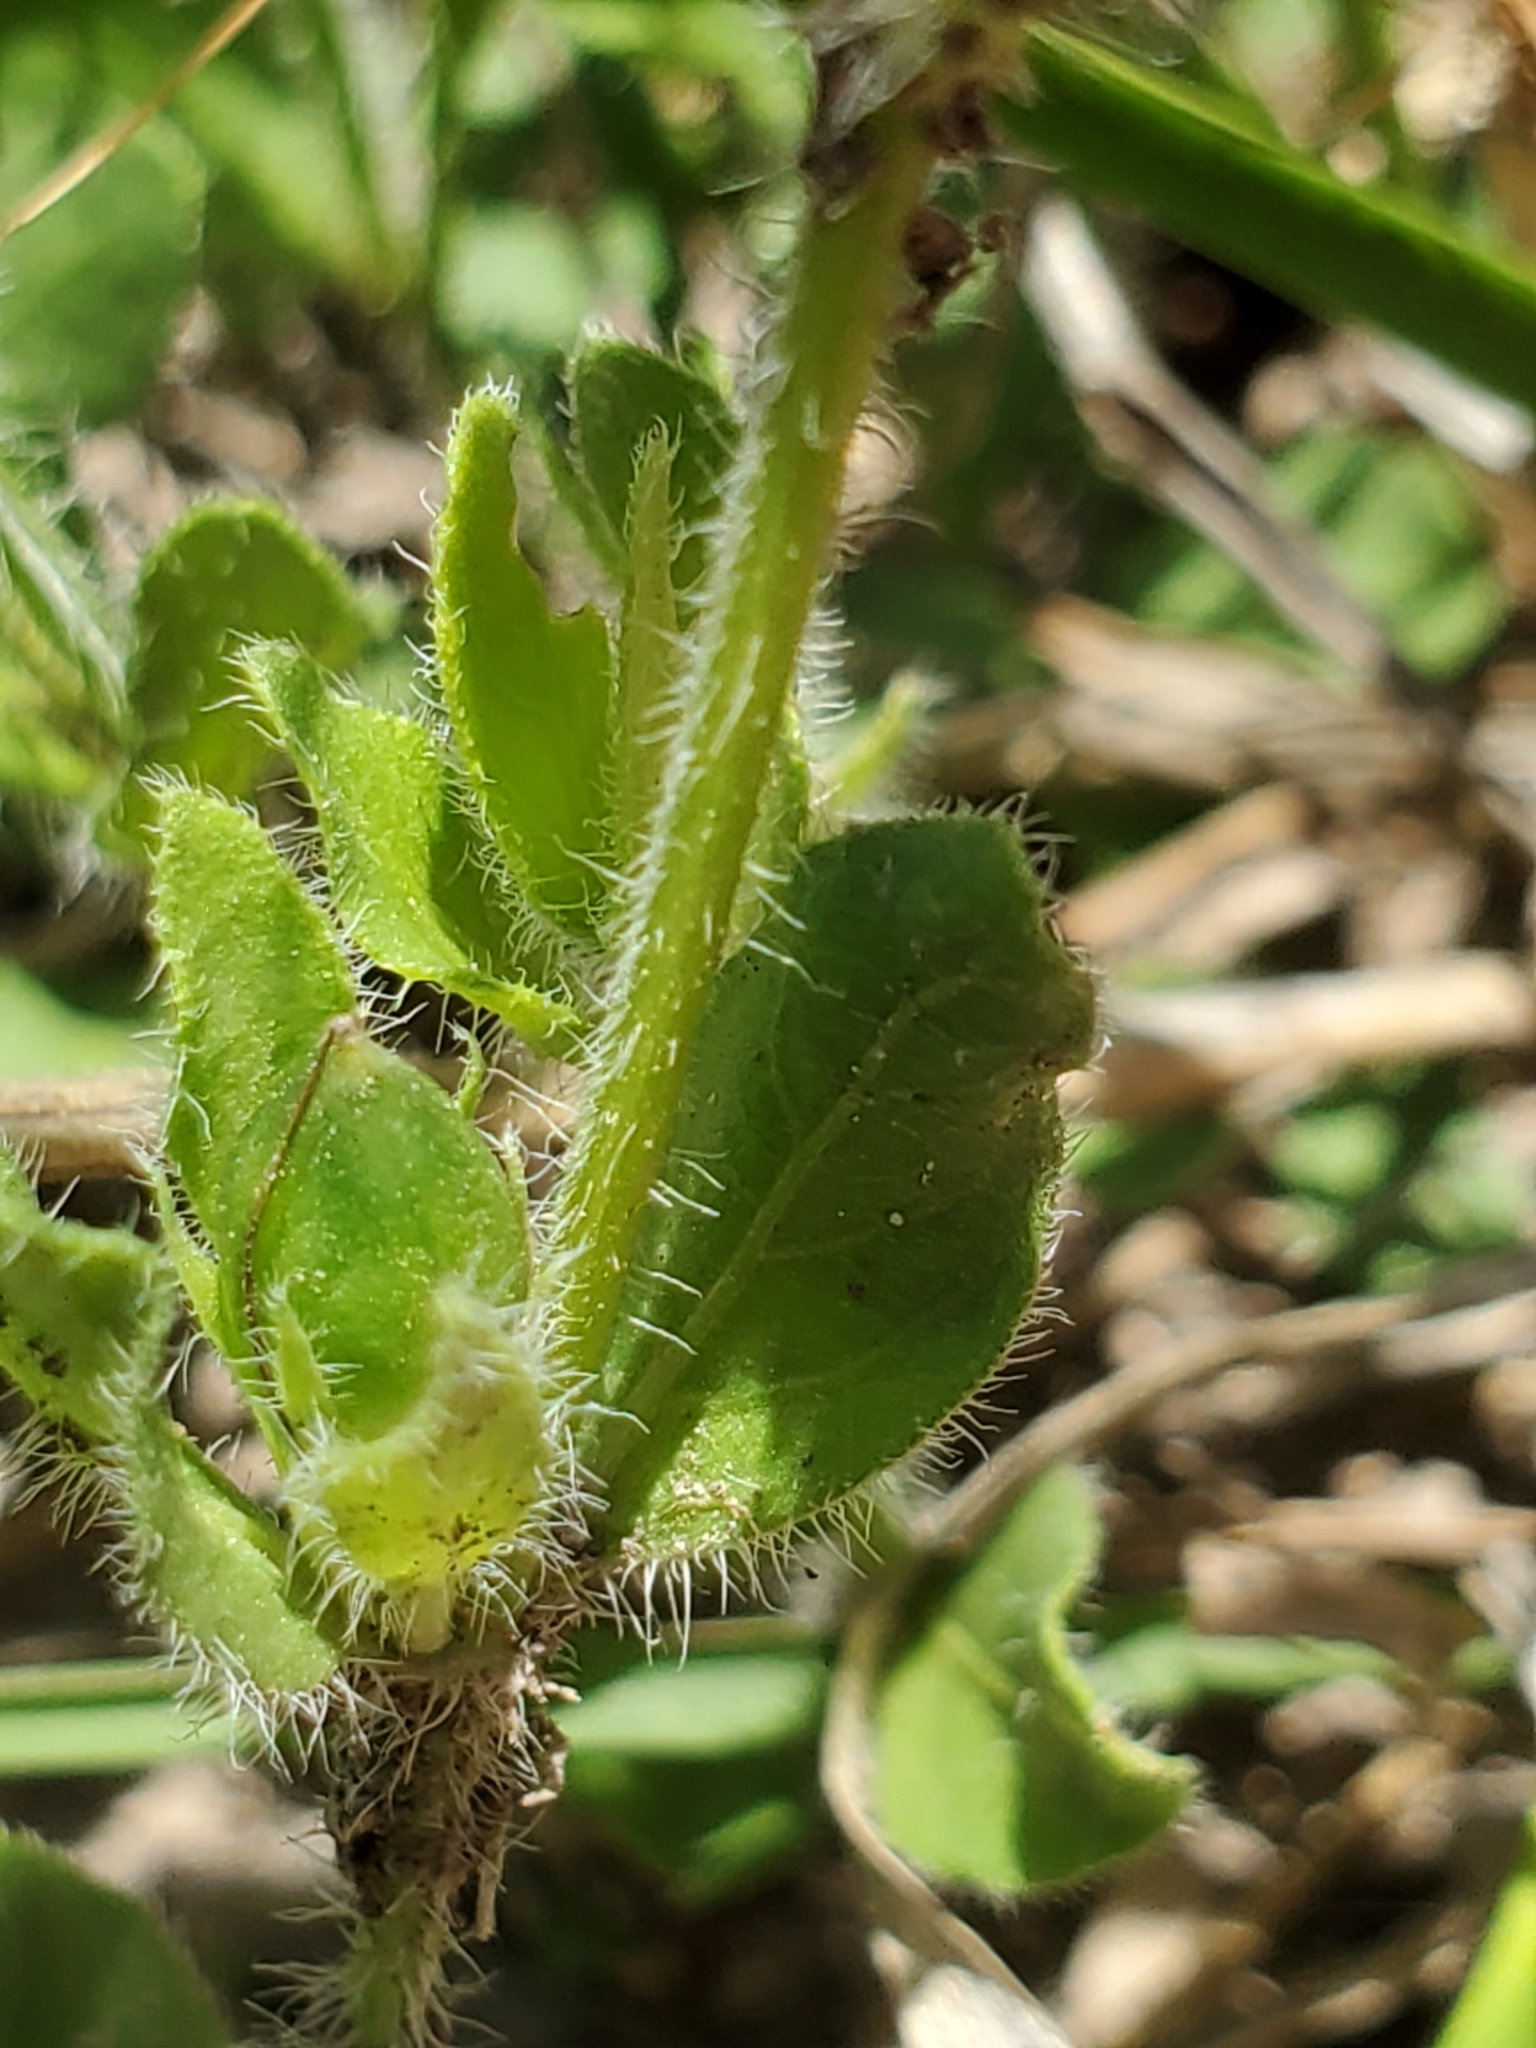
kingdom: Plantae
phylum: Tracheophyta
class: Magnoliopsida
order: Lamiales
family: Acanthaceae
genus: Justicia
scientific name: Justicia pilosella
